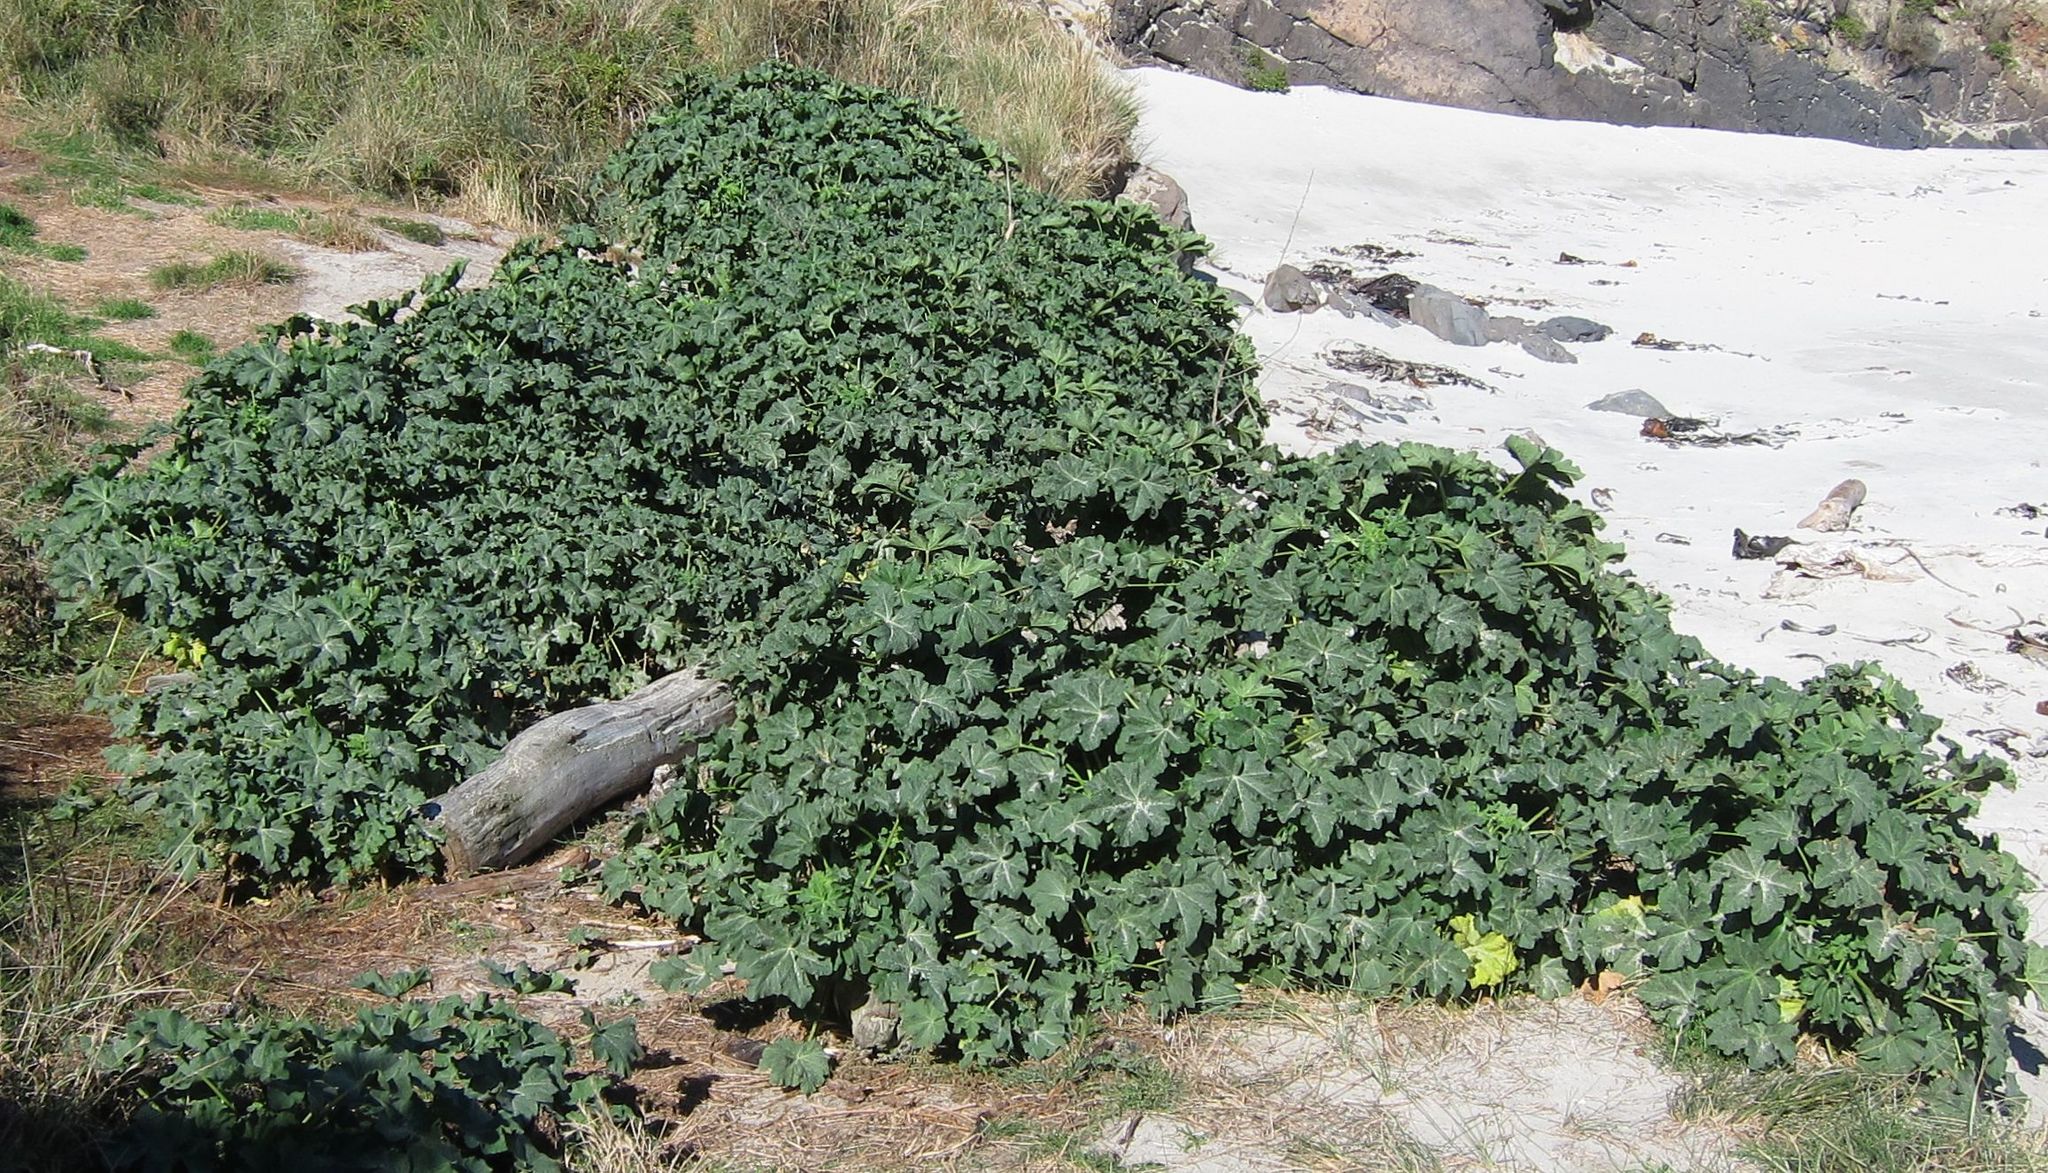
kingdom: Plantae
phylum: Tracheophyta
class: Magnoliopsida
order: Malvales
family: Malvaceae
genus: Malva
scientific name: Malva arborea
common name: Tree mallow
